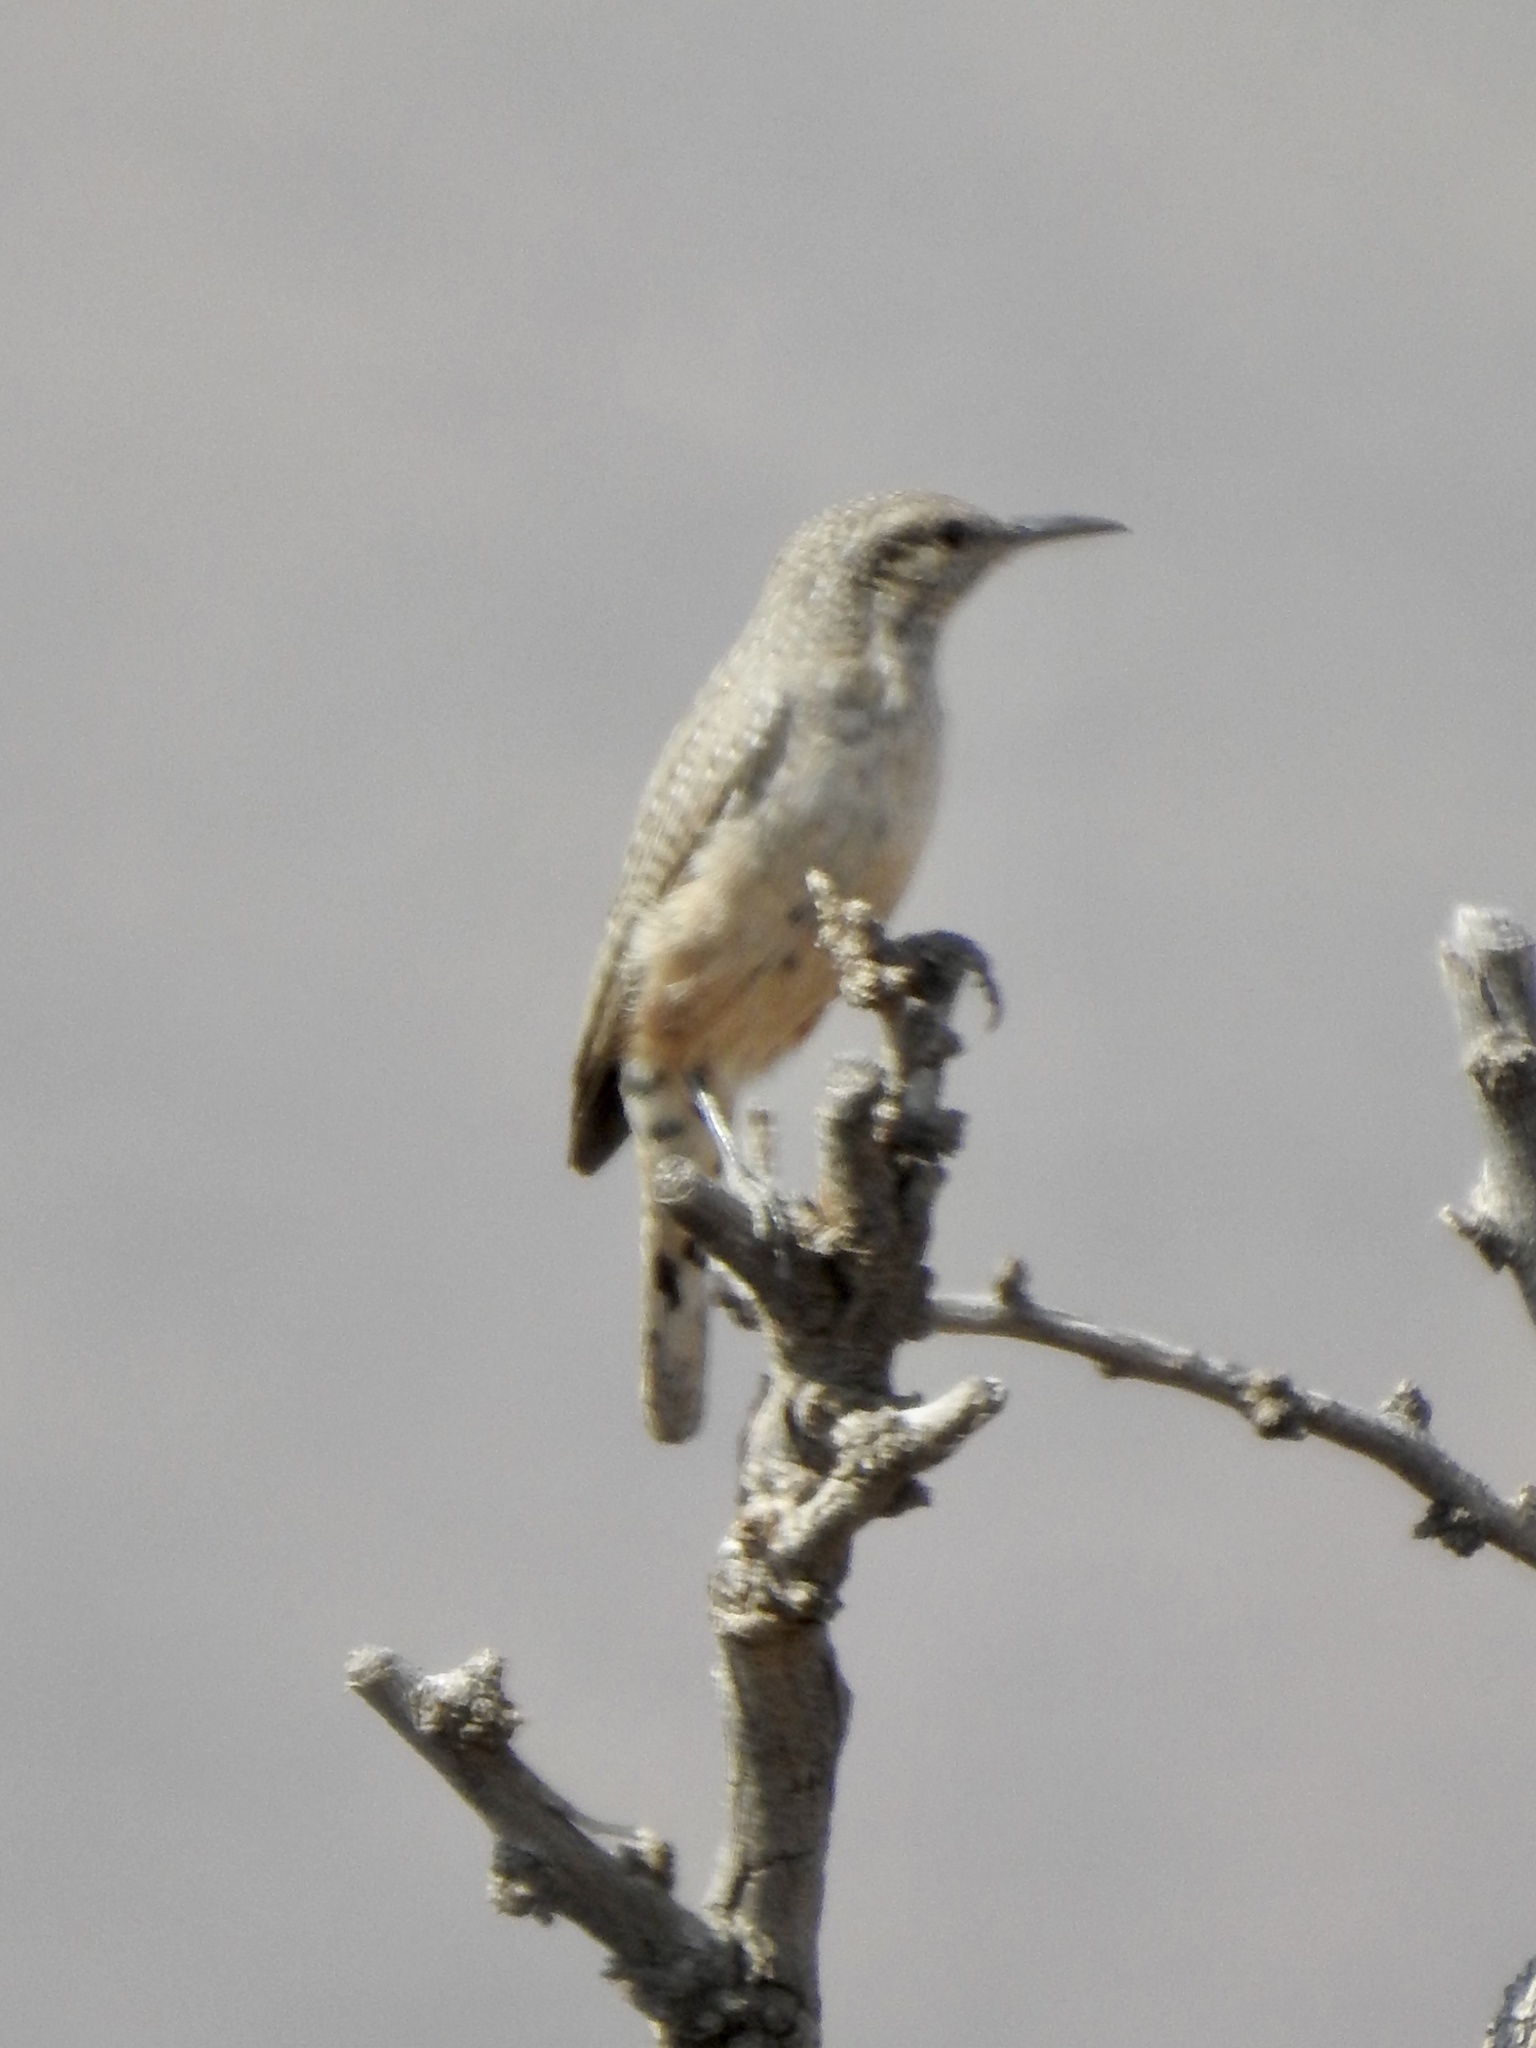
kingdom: Animalia
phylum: Chordata
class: Aves
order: Passeriformes
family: Troglodytidae
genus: Salpinctes
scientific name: Salpinctes obsoletus
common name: Rock wren
